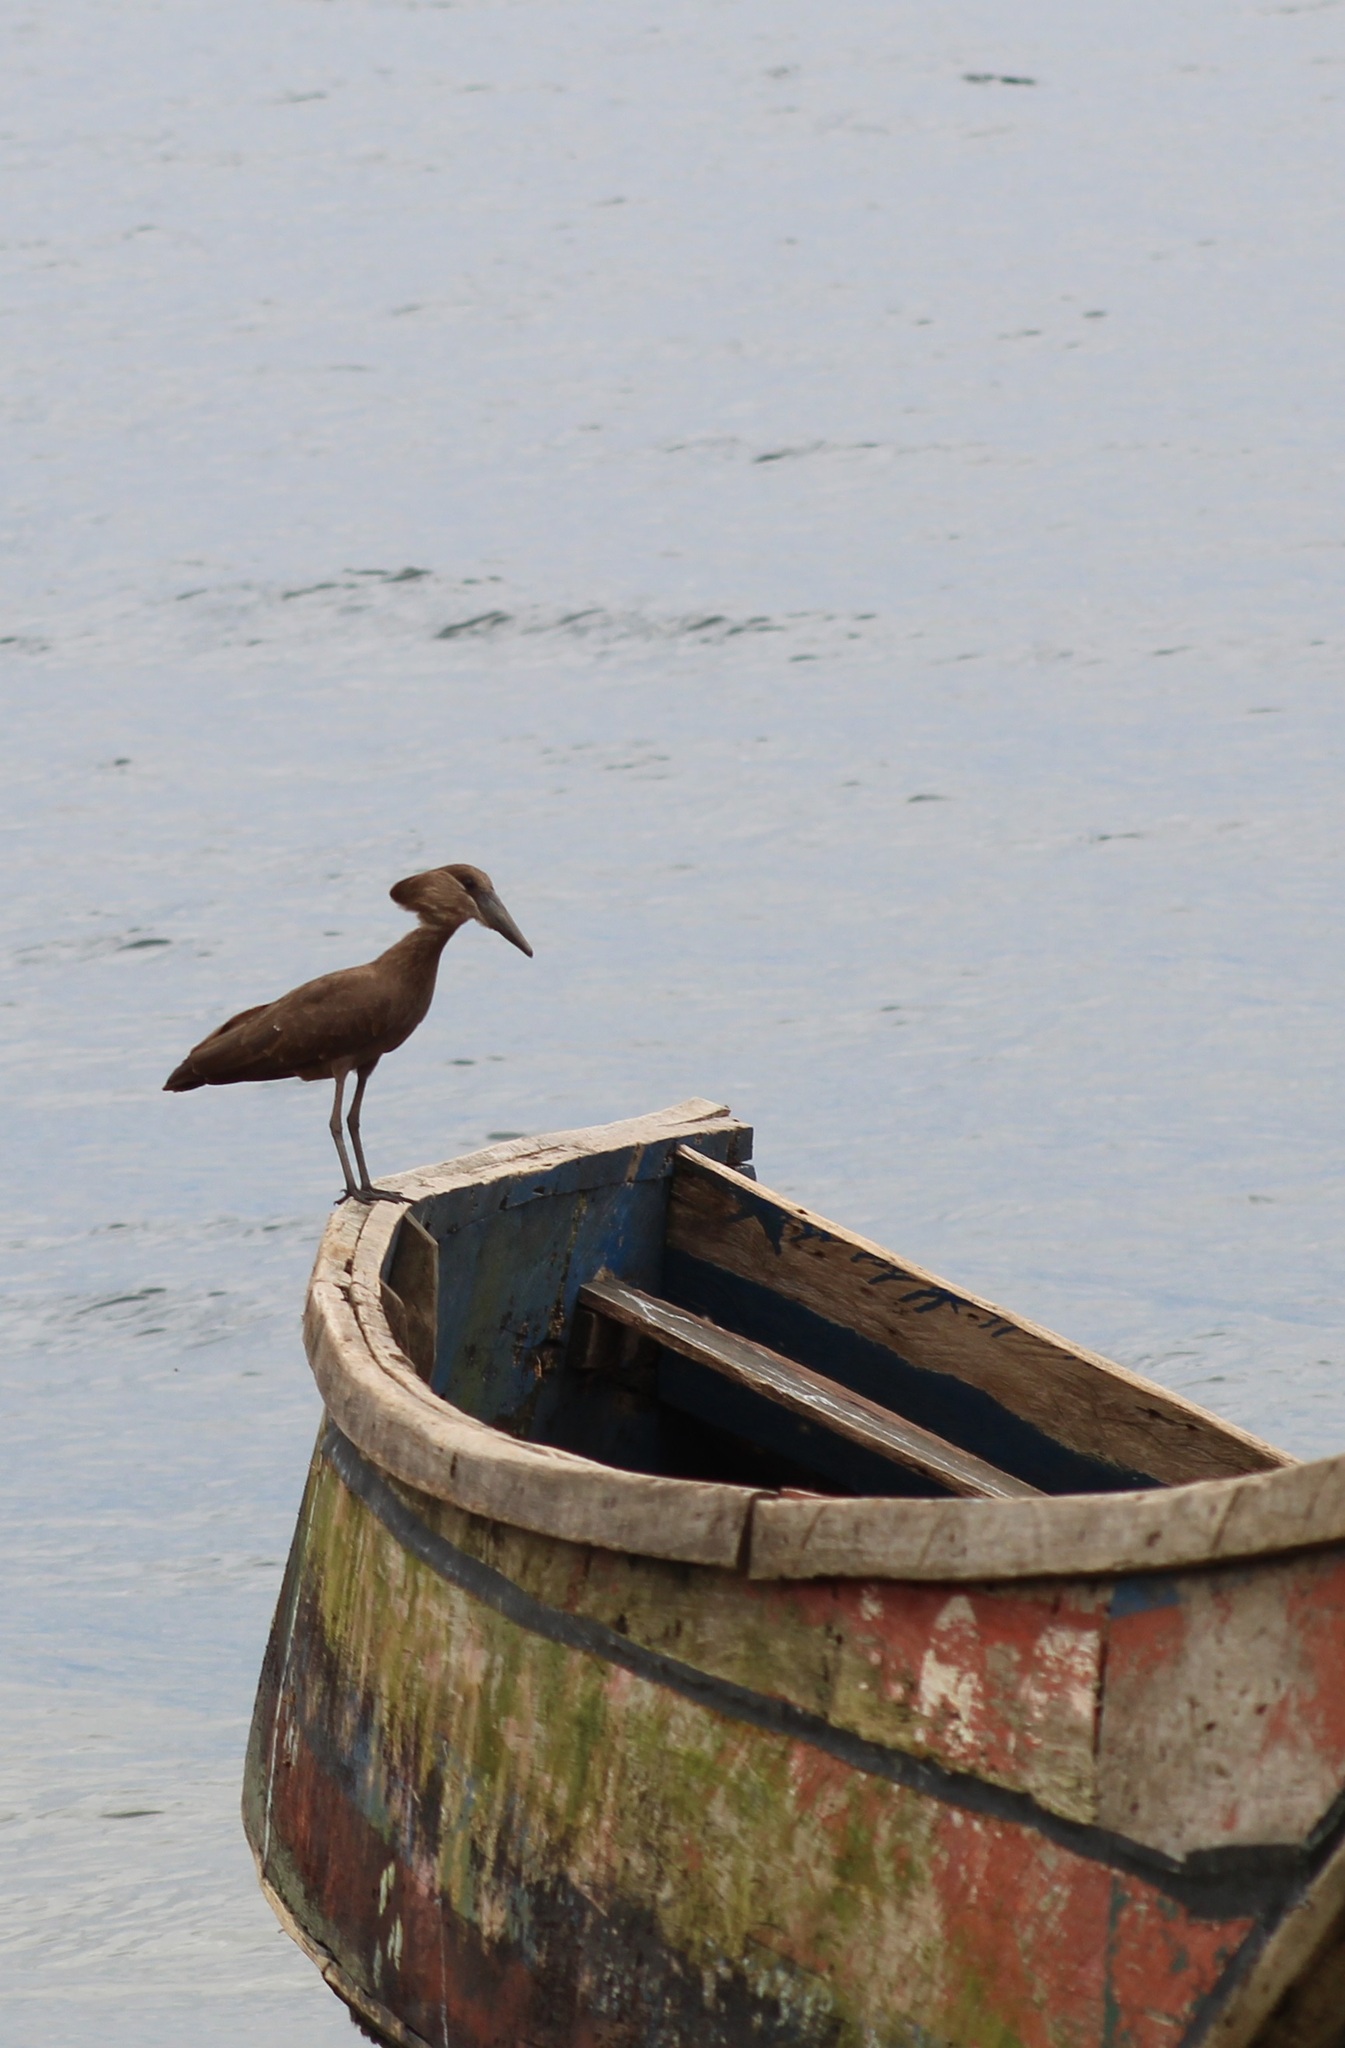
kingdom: Animalia
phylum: Chordata
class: Aves
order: Pelecaniformes
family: Scopidae
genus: Scopus
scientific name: Scopus umbretta
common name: Hamerkop
